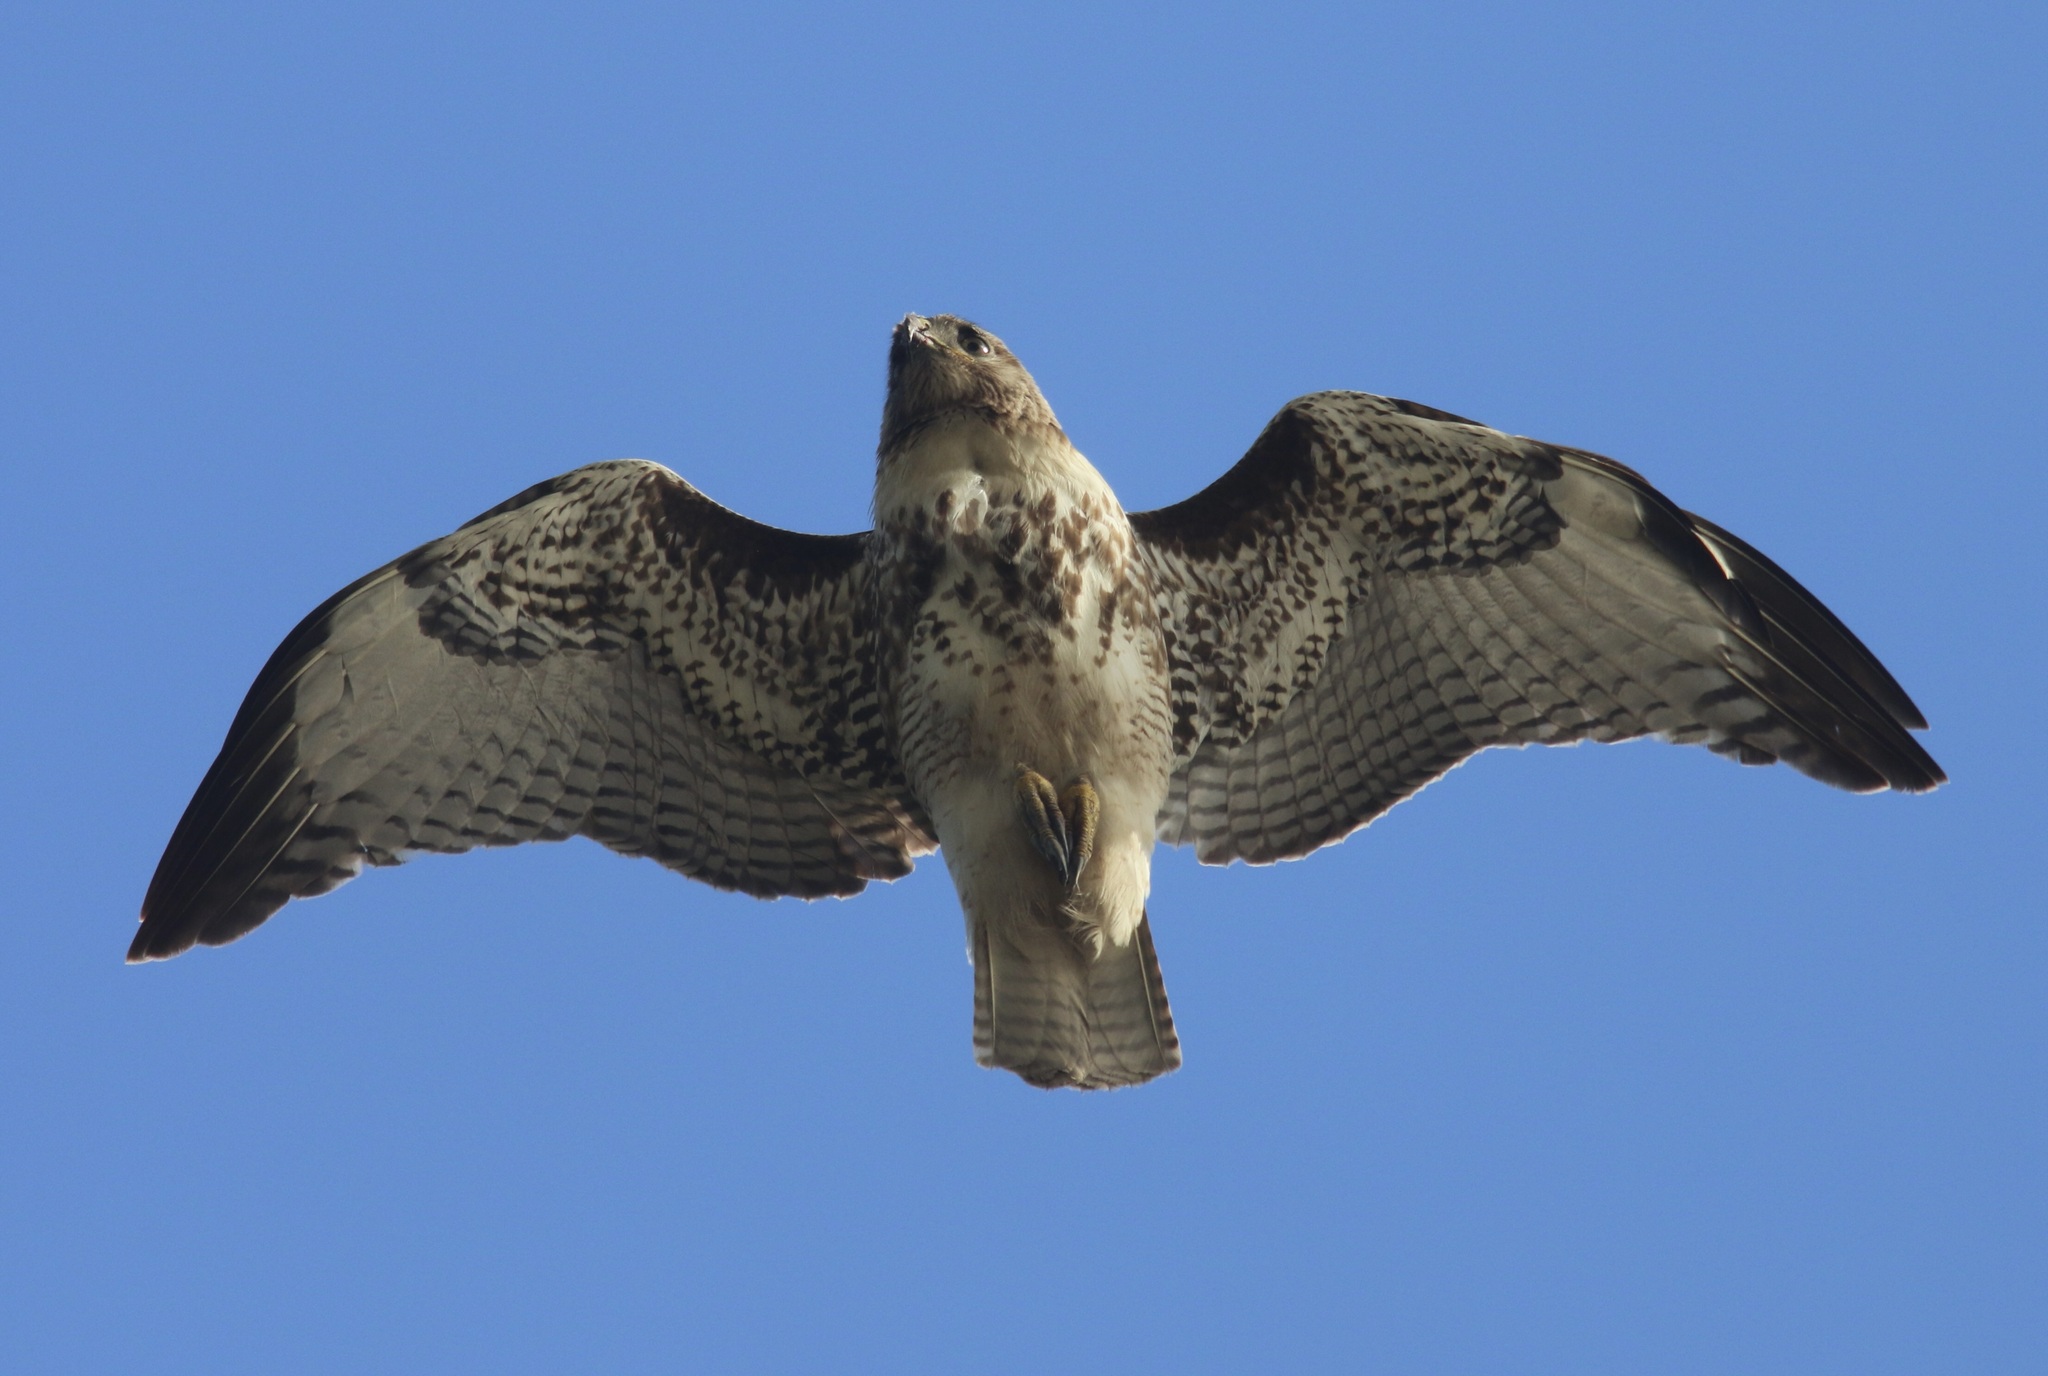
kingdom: Animalia
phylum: Chordata
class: Aves
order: Accipitriformes
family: Accipitridae
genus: Buteo
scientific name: Buteo jamaicensis
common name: Red-tailed hawk
